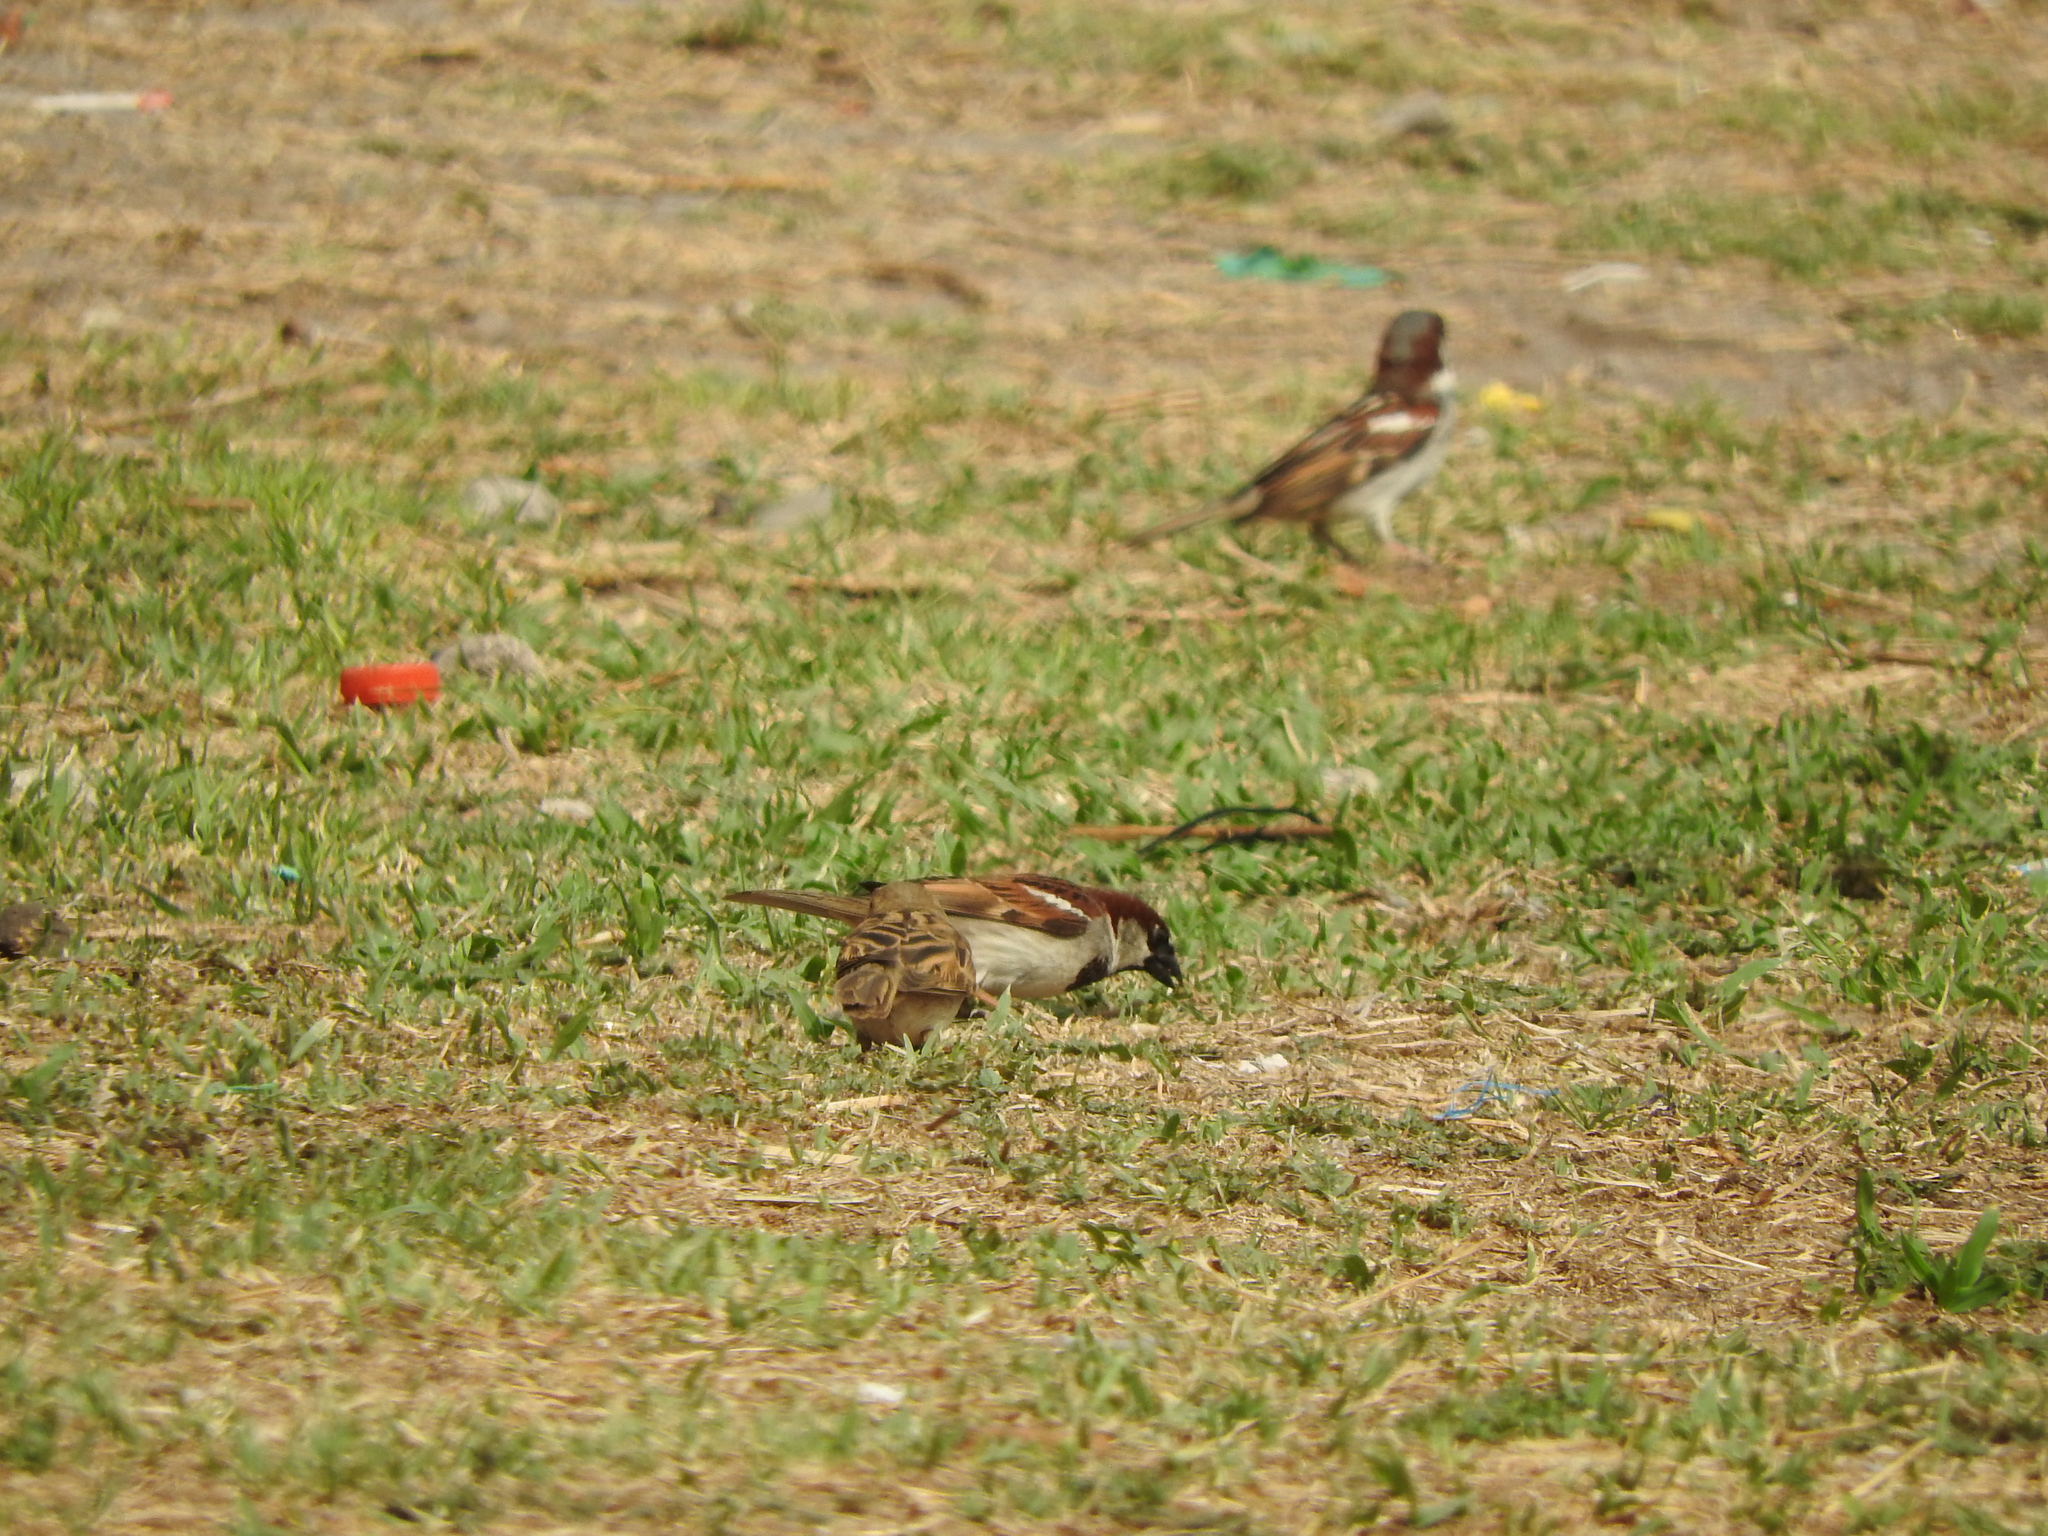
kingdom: Animalia
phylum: Chordata
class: Aves
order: Passeriformes
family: Passeridae
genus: Passer
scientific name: Passer domesticus
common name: House sparrow
